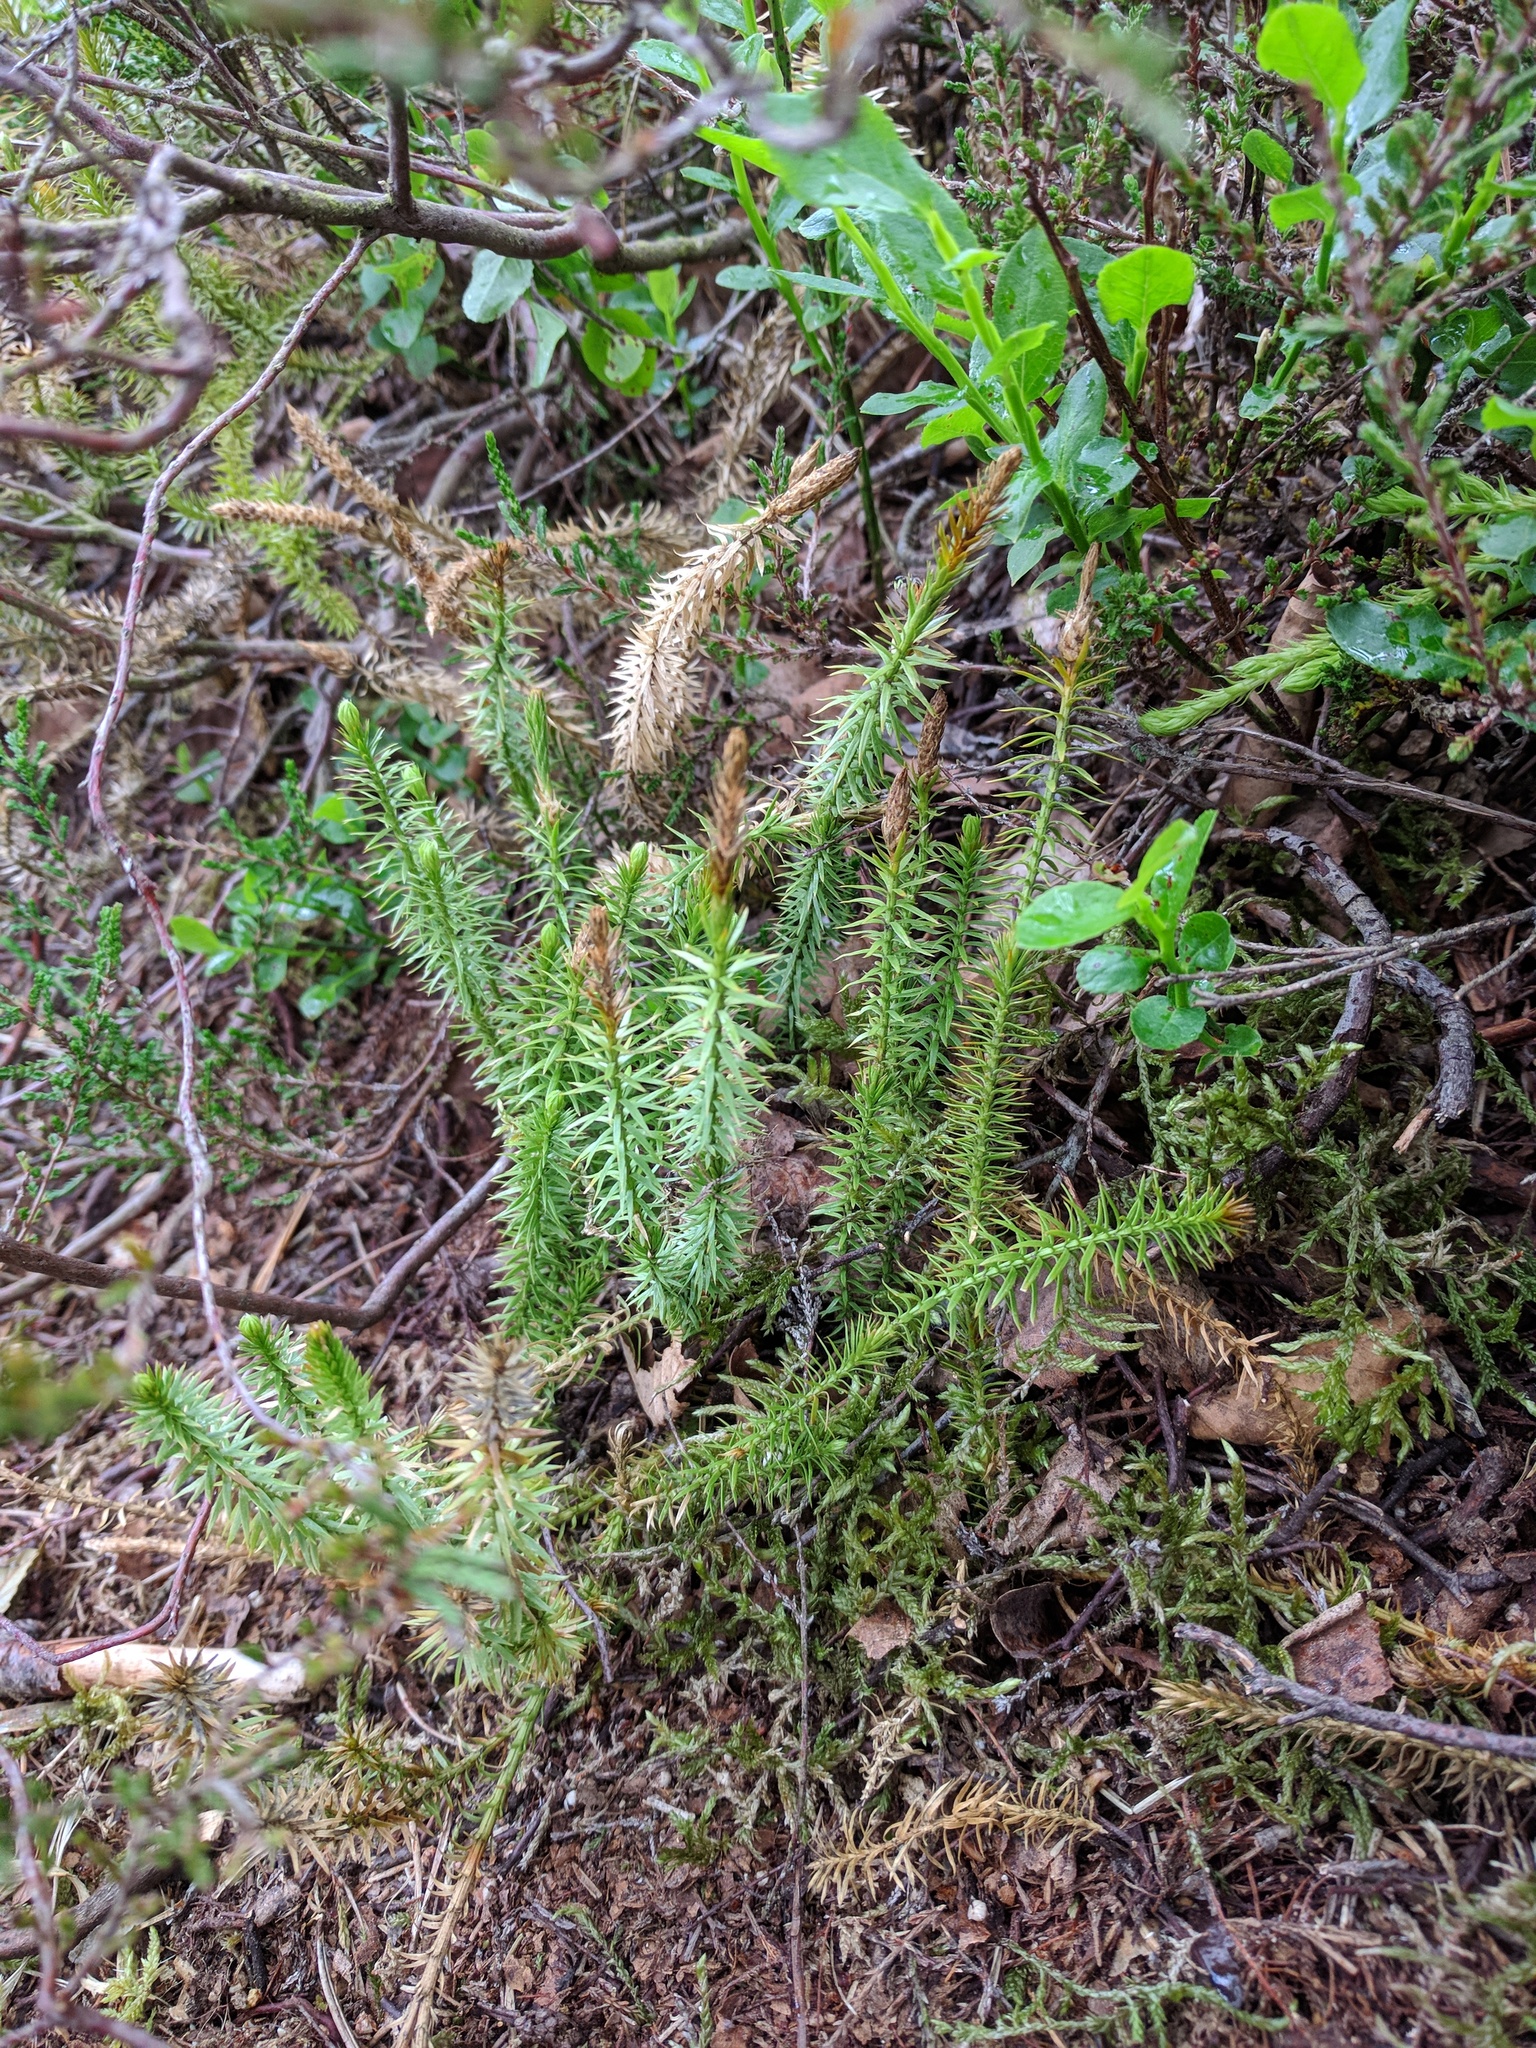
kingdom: Plantae
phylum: Tracheophyta
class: Lycopodiopsida
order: Lycopodiales
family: Lycopodiaceae
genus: Spinulum
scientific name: Spinulum annotinum
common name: Interrupted club-moss
